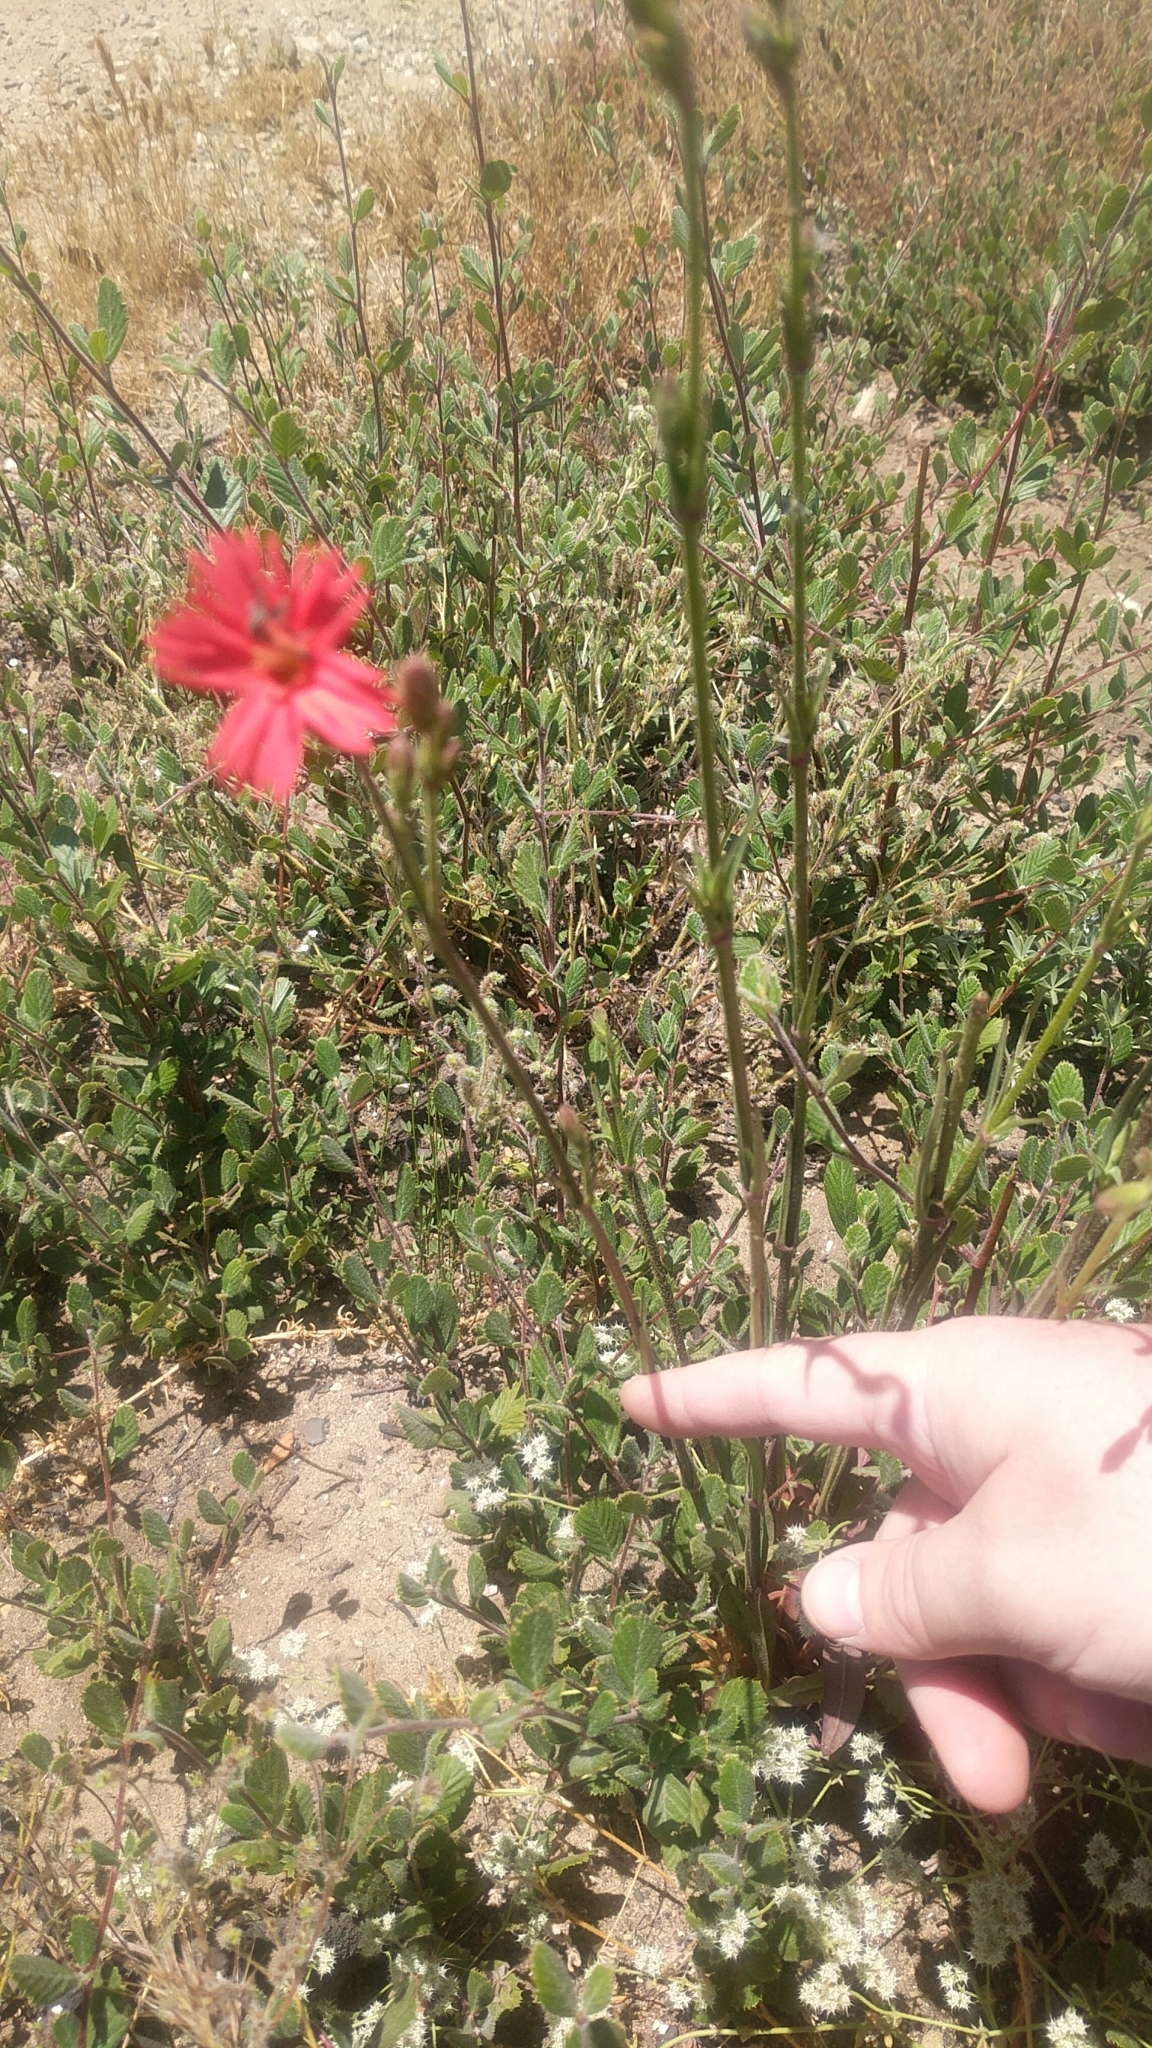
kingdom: Plantae
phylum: Tracheophyta
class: Magnoliopsida
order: Caryophyllales
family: Caryophyllaceae
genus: Silene
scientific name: Silene laciniata
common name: Indian-pink
